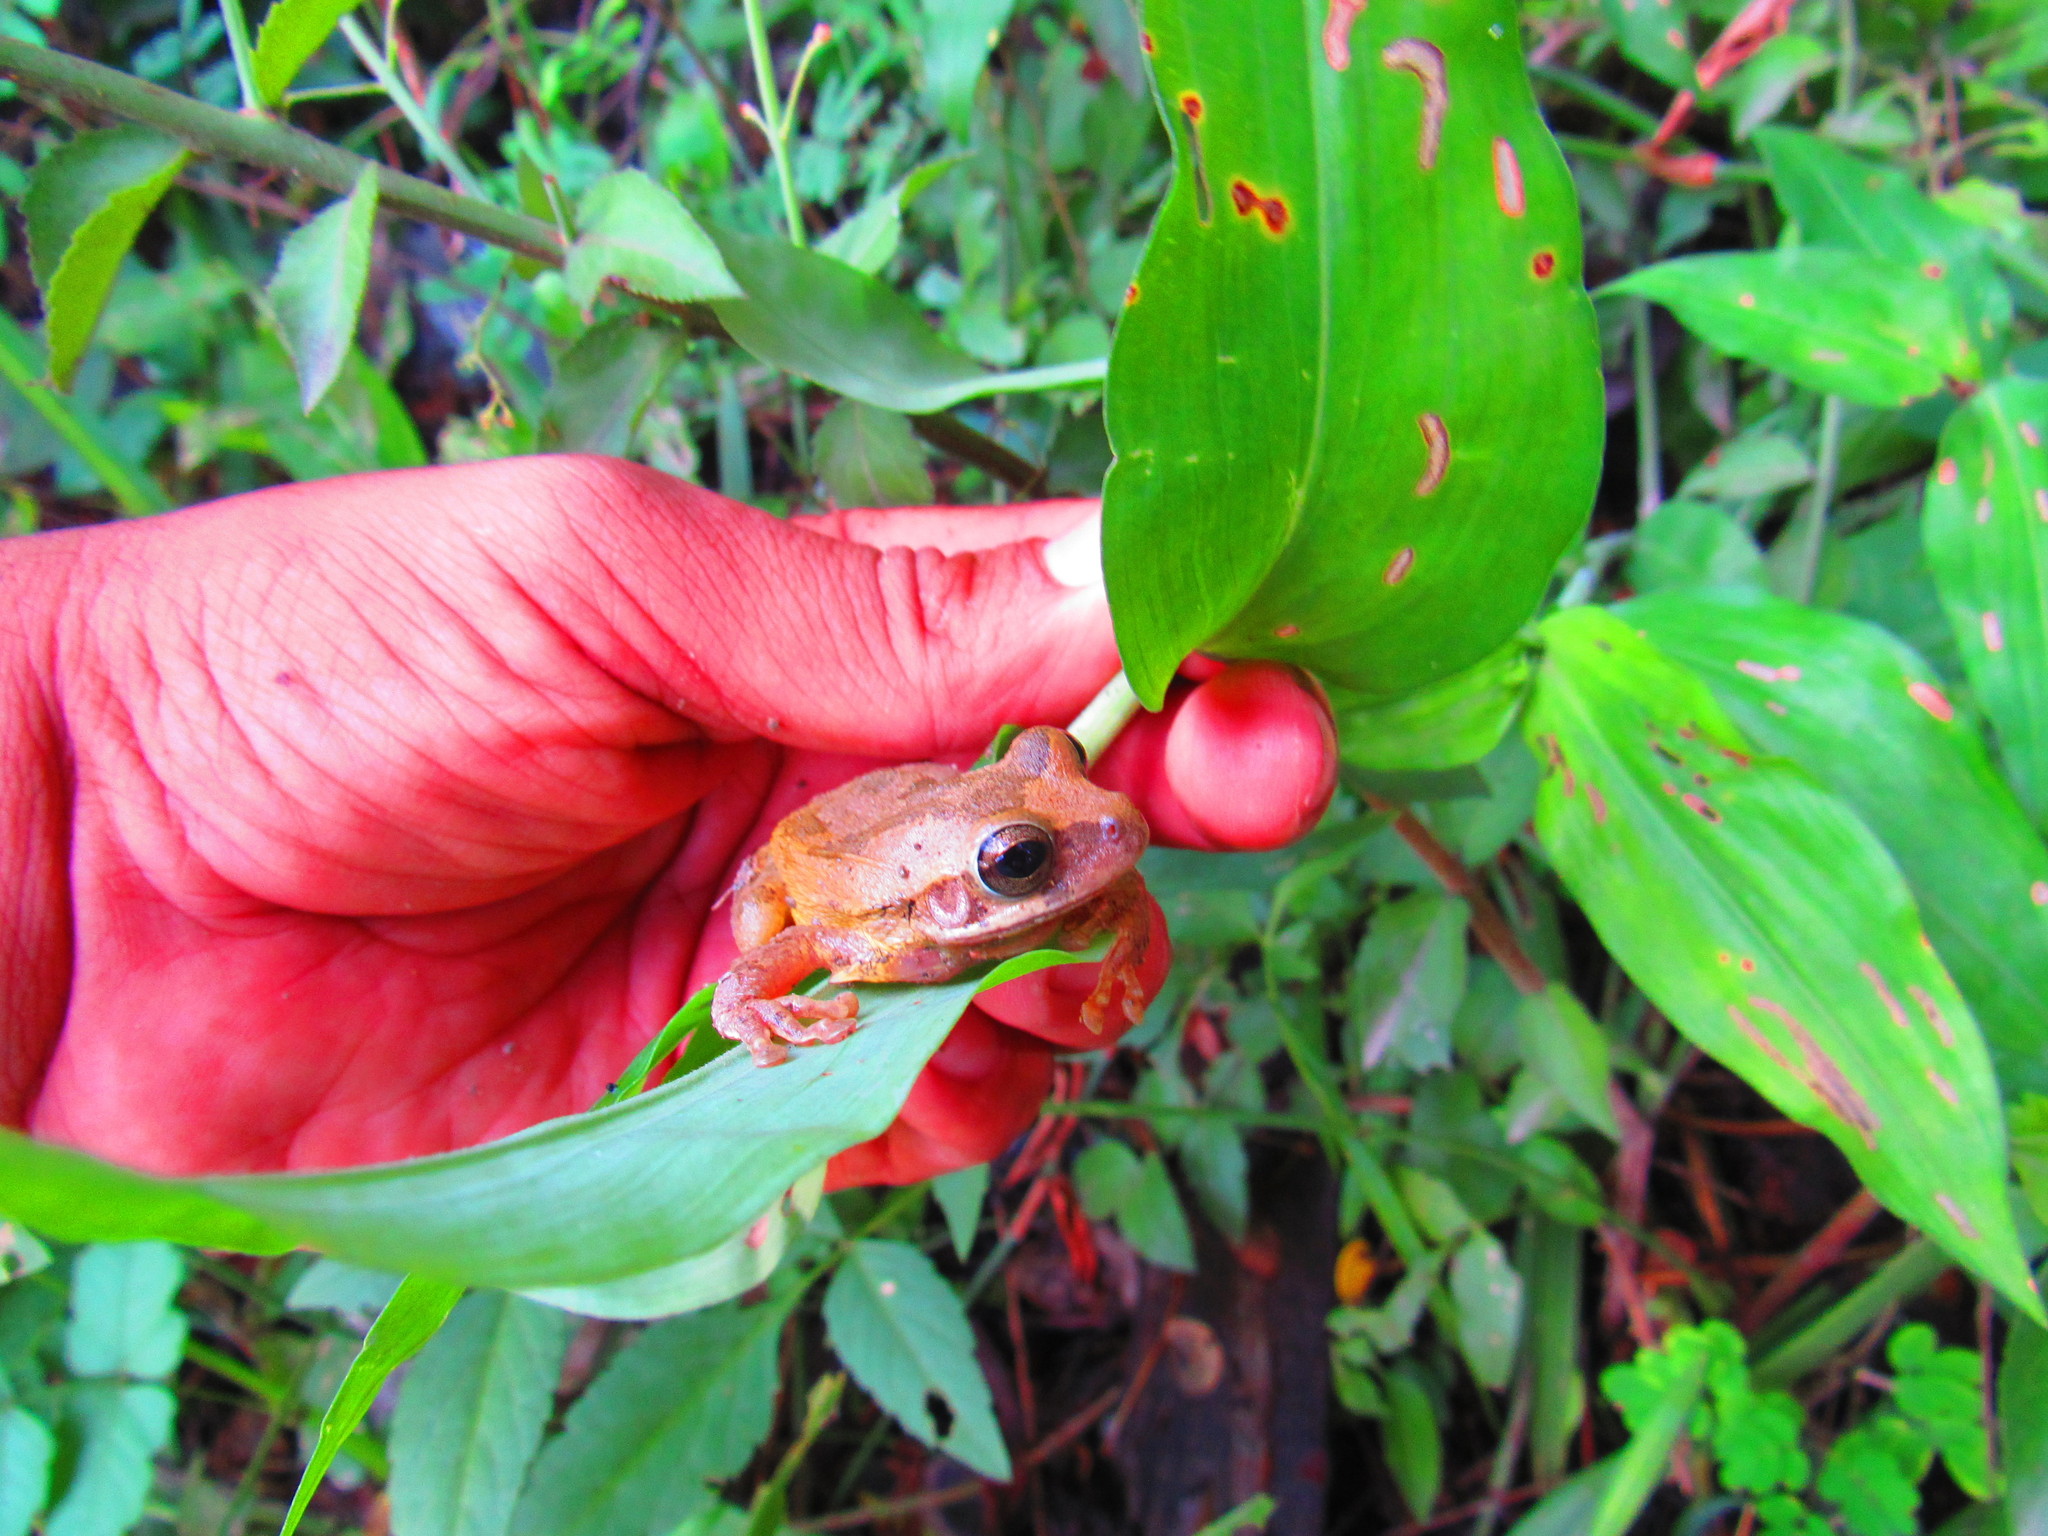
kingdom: Animalia
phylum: Chordata
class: Amphibia
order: Anura
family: Hylidae
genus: Smilisca
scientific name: Smilisca baudinii
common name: Mexican smilisca
